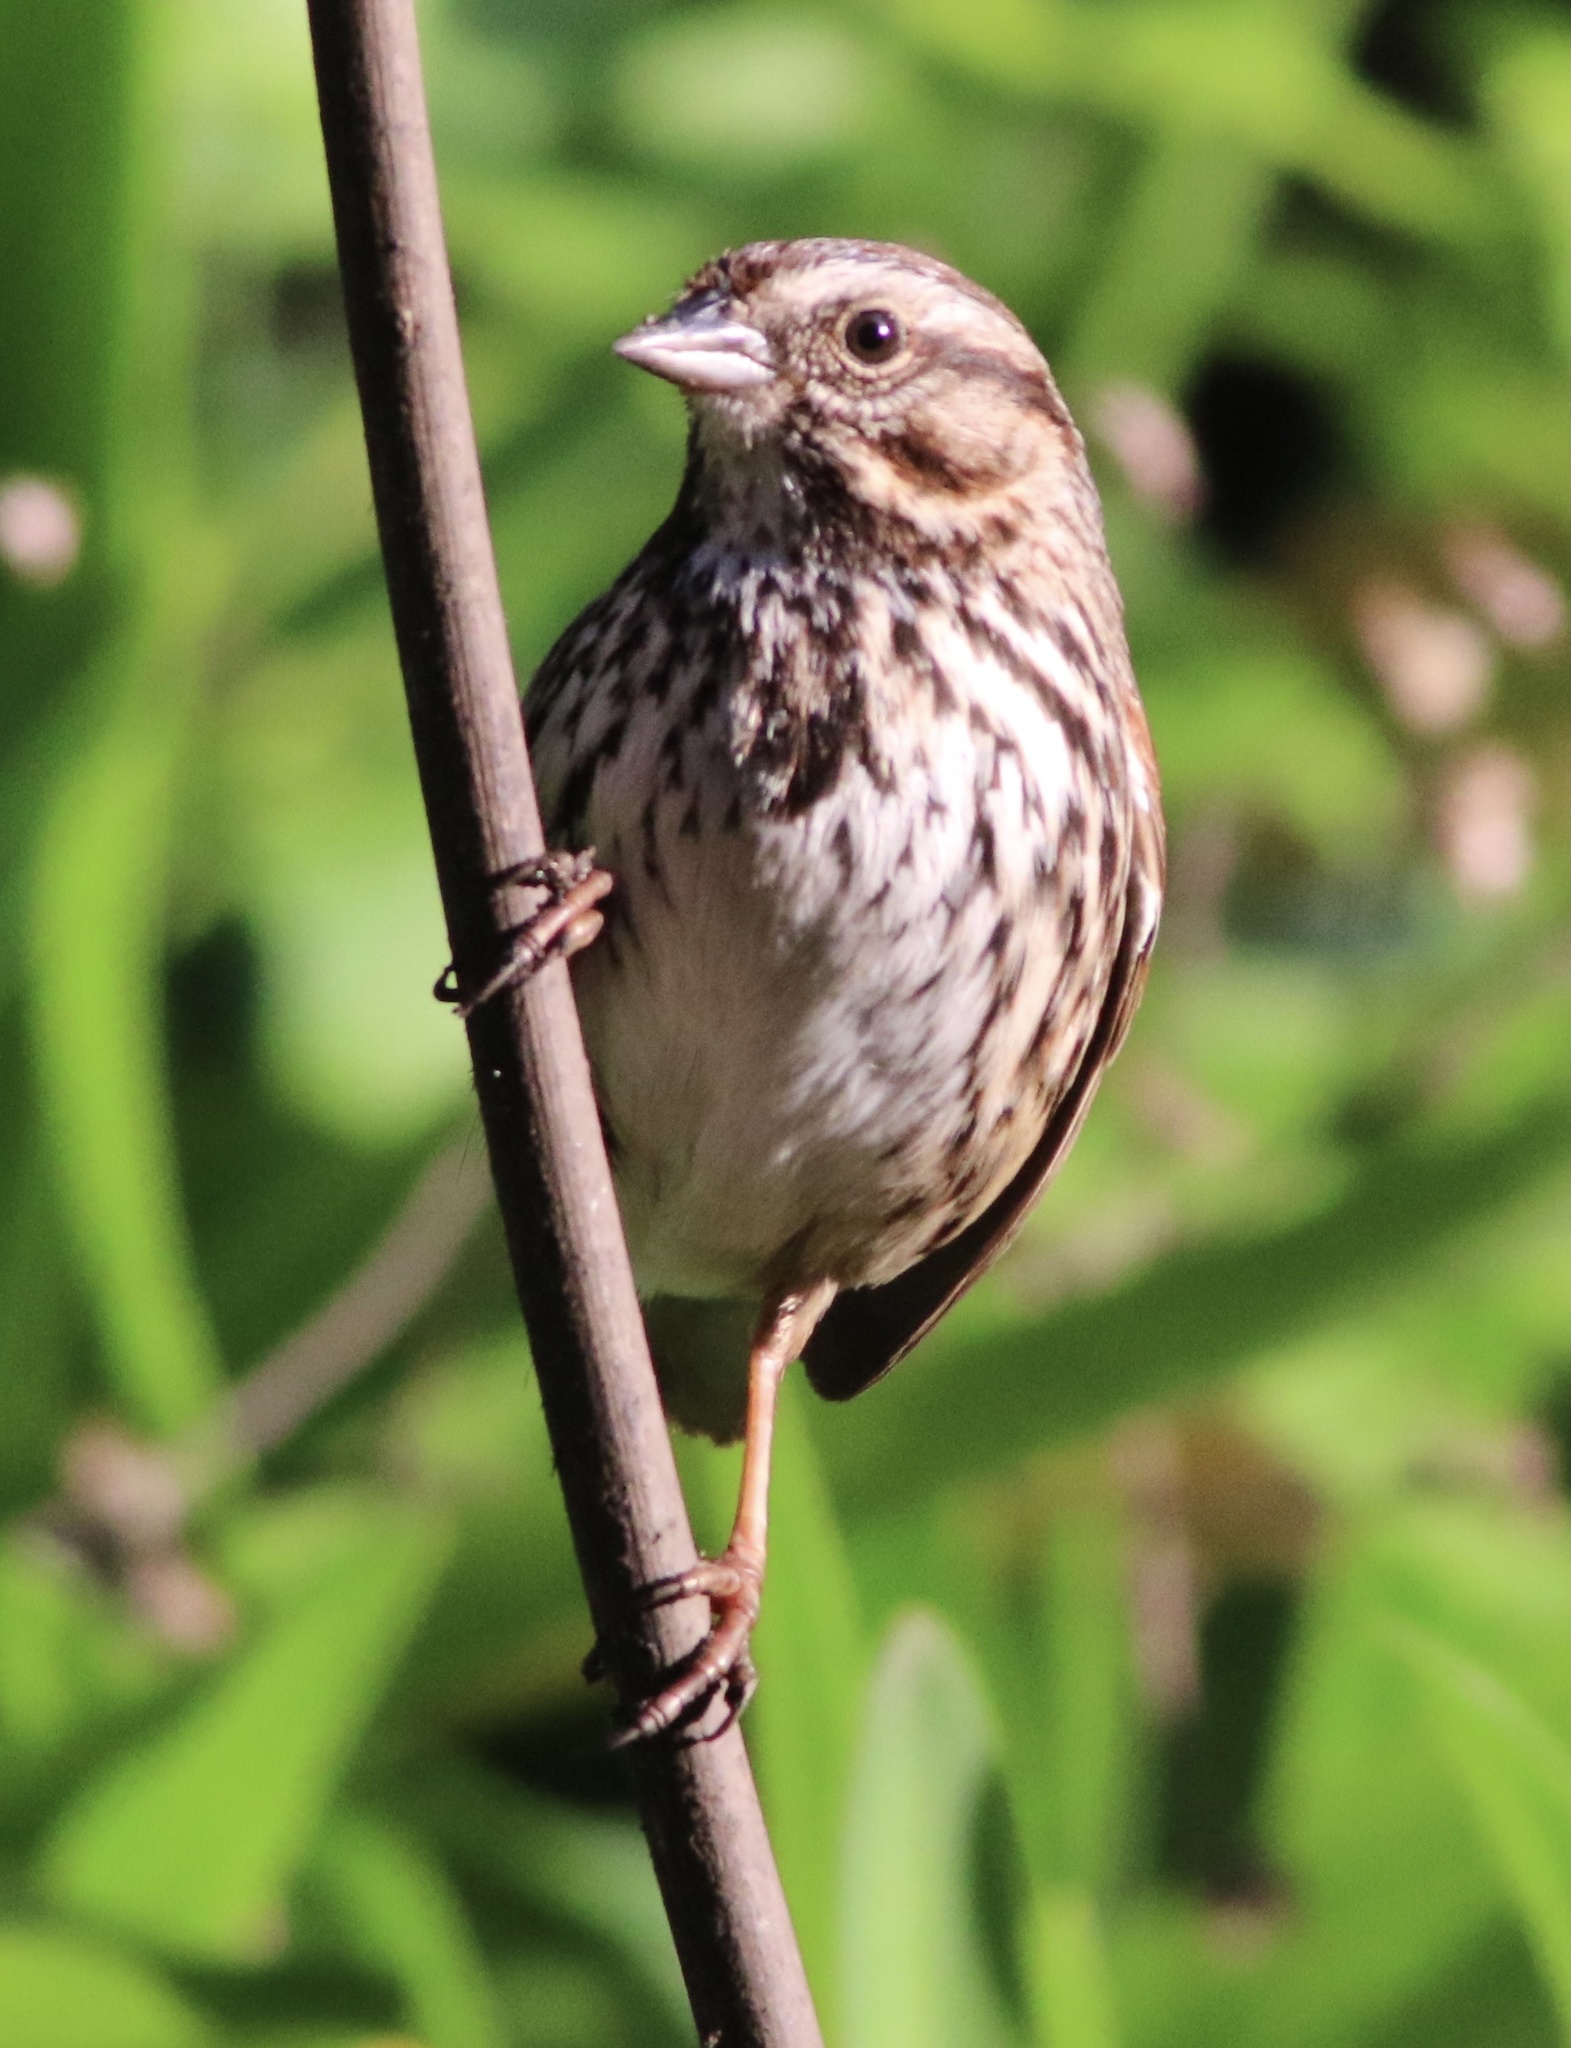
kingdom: Animalia
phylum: Chordata
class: Aves
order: Passeriformes
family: Passerellidae
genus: Melospiza
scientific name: Melospiza melodia
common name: Song sparrow
